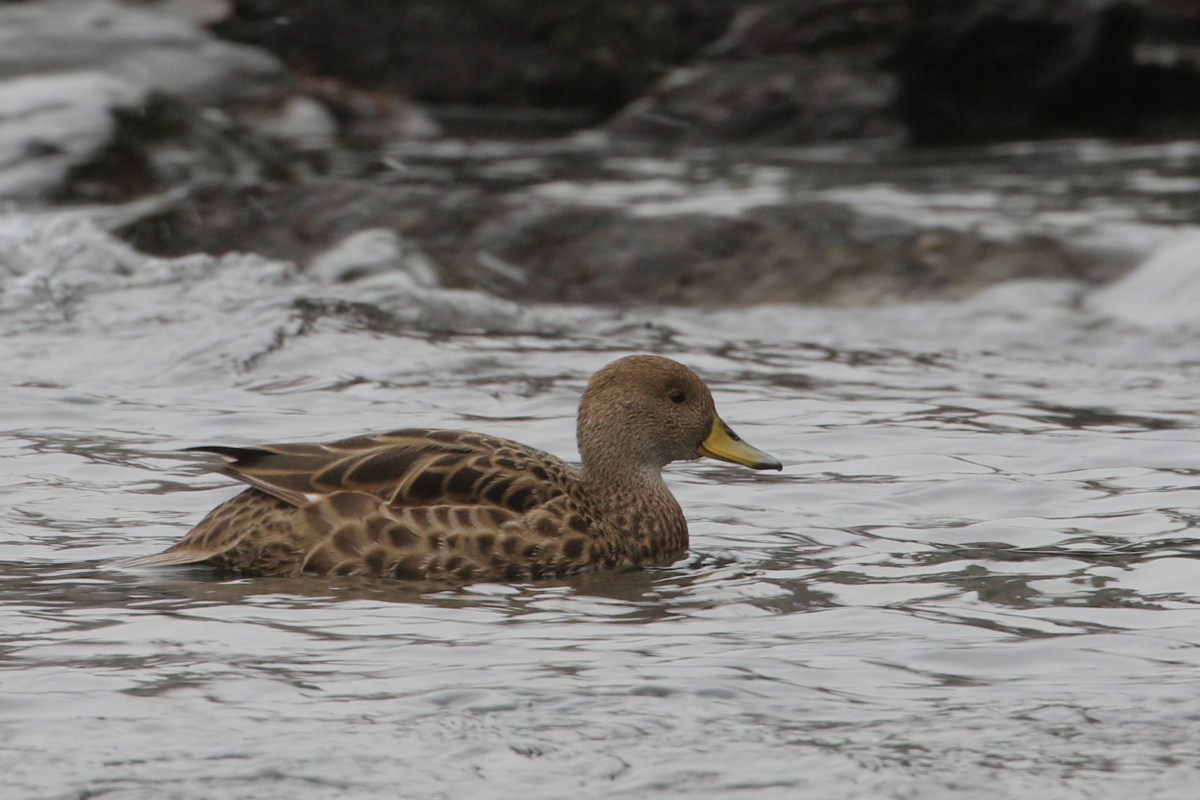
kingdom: Animalia
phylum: Chordata
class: Aves
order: Anseriformes
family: Anatidae
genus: Anas
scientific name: Anas georgica
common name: Yellow-billed pintail
